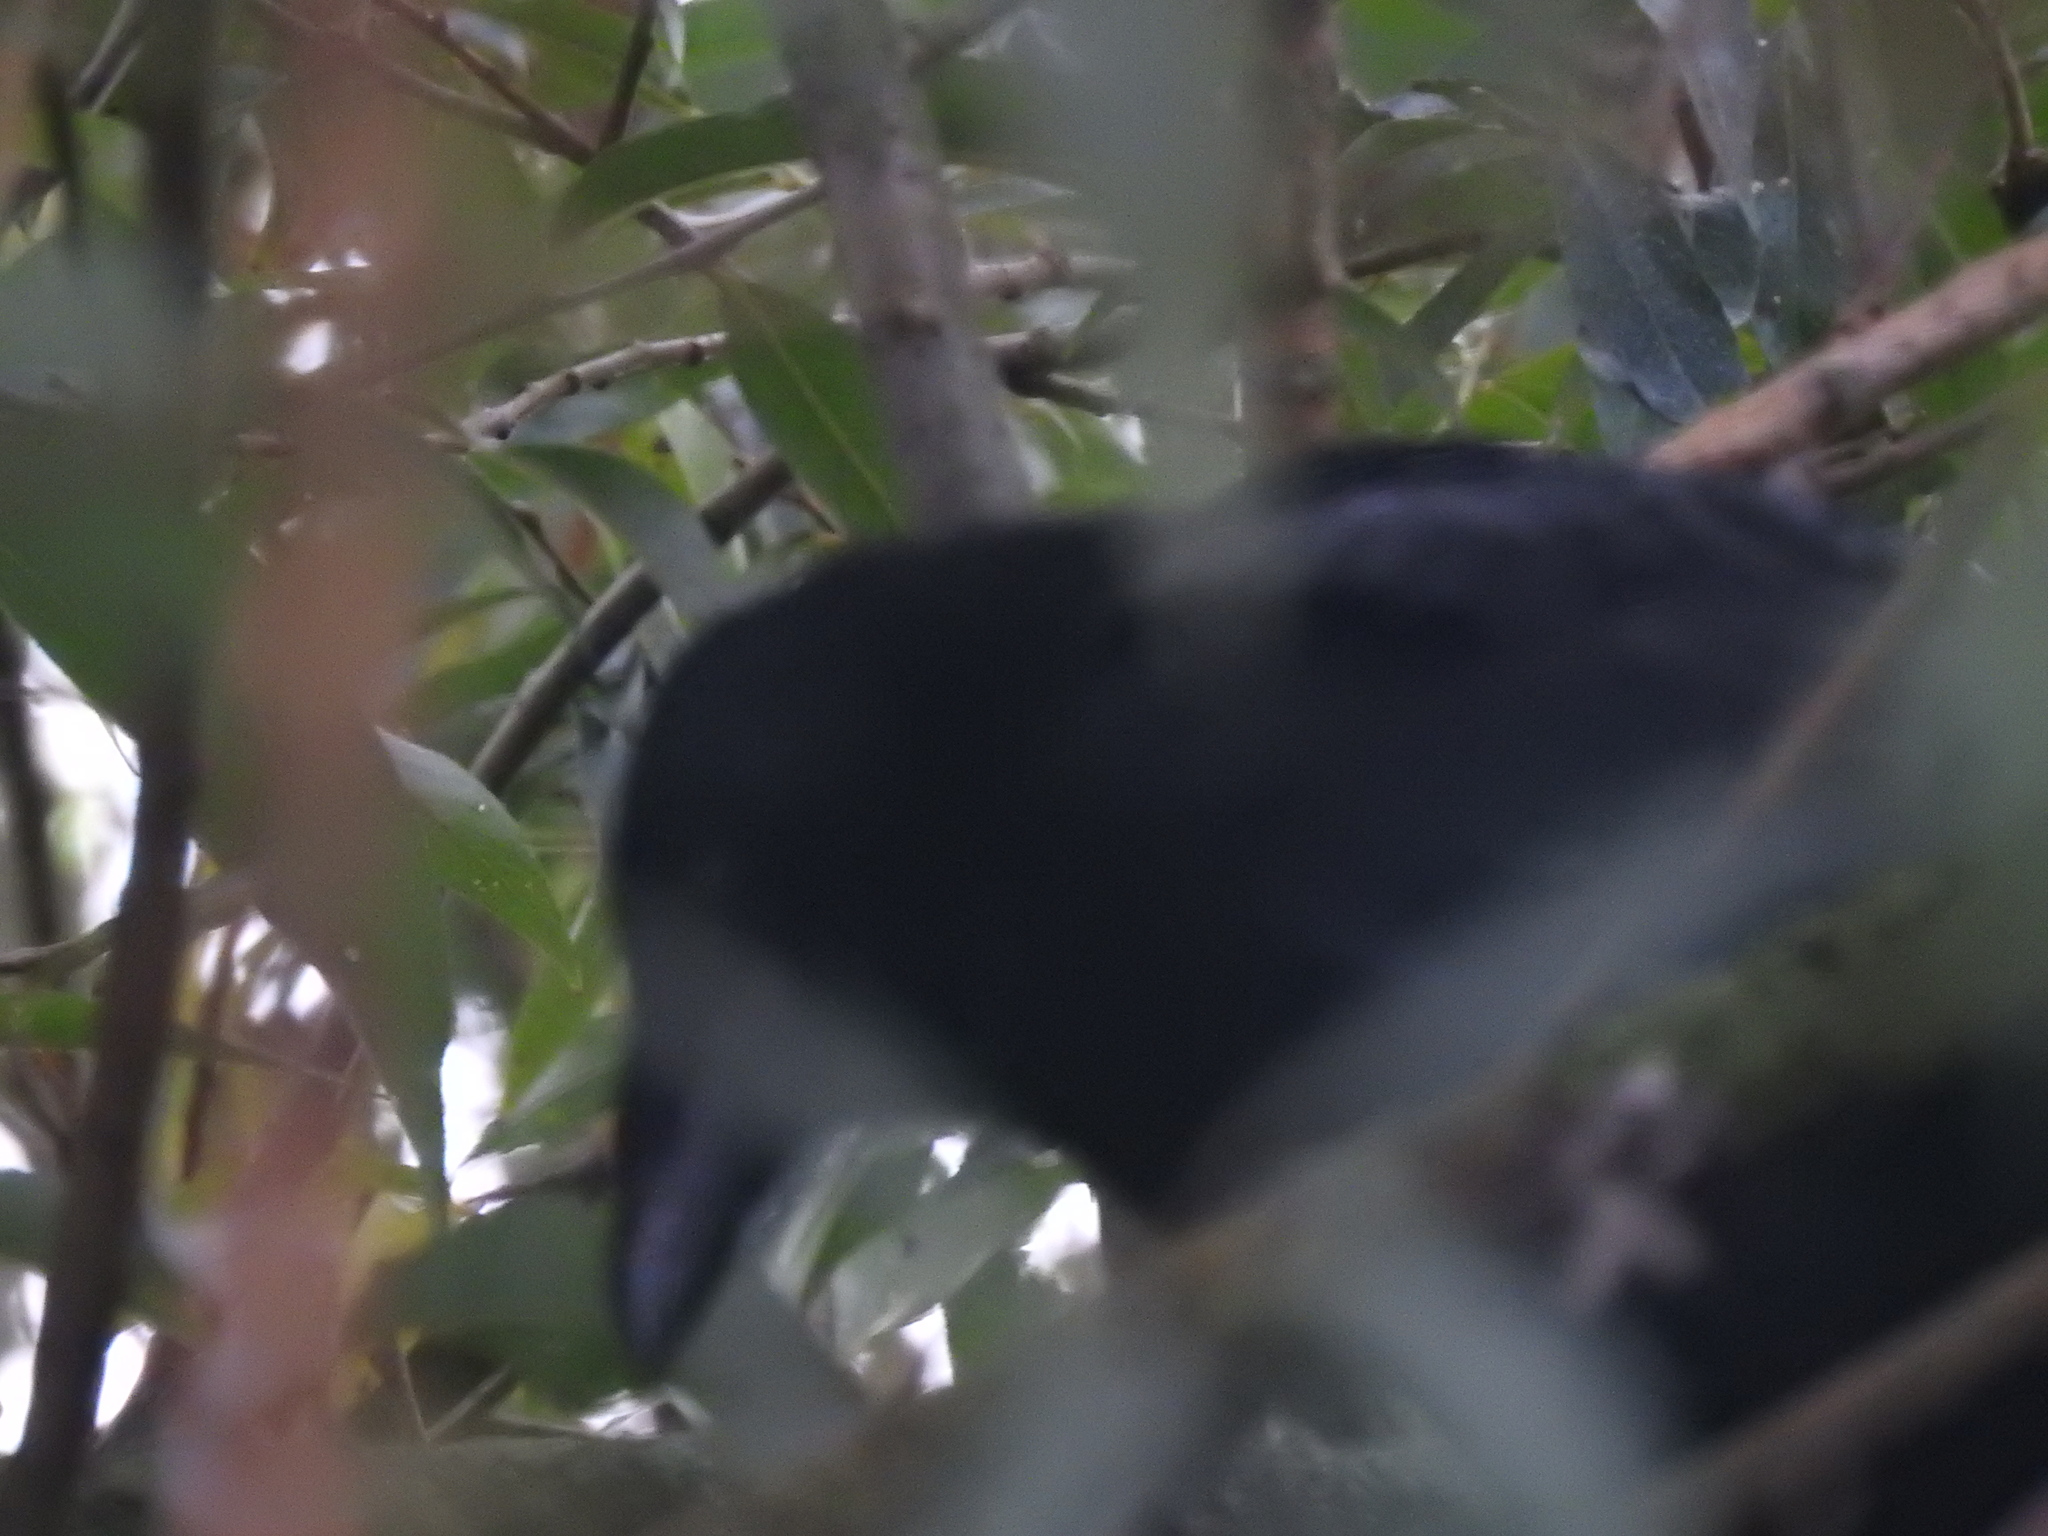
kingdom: Animalia
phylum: Chordata
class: Aves
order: Passeriformes
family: Corvidae
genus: Corvus
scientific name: Corvus corone
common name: Carrion crow
